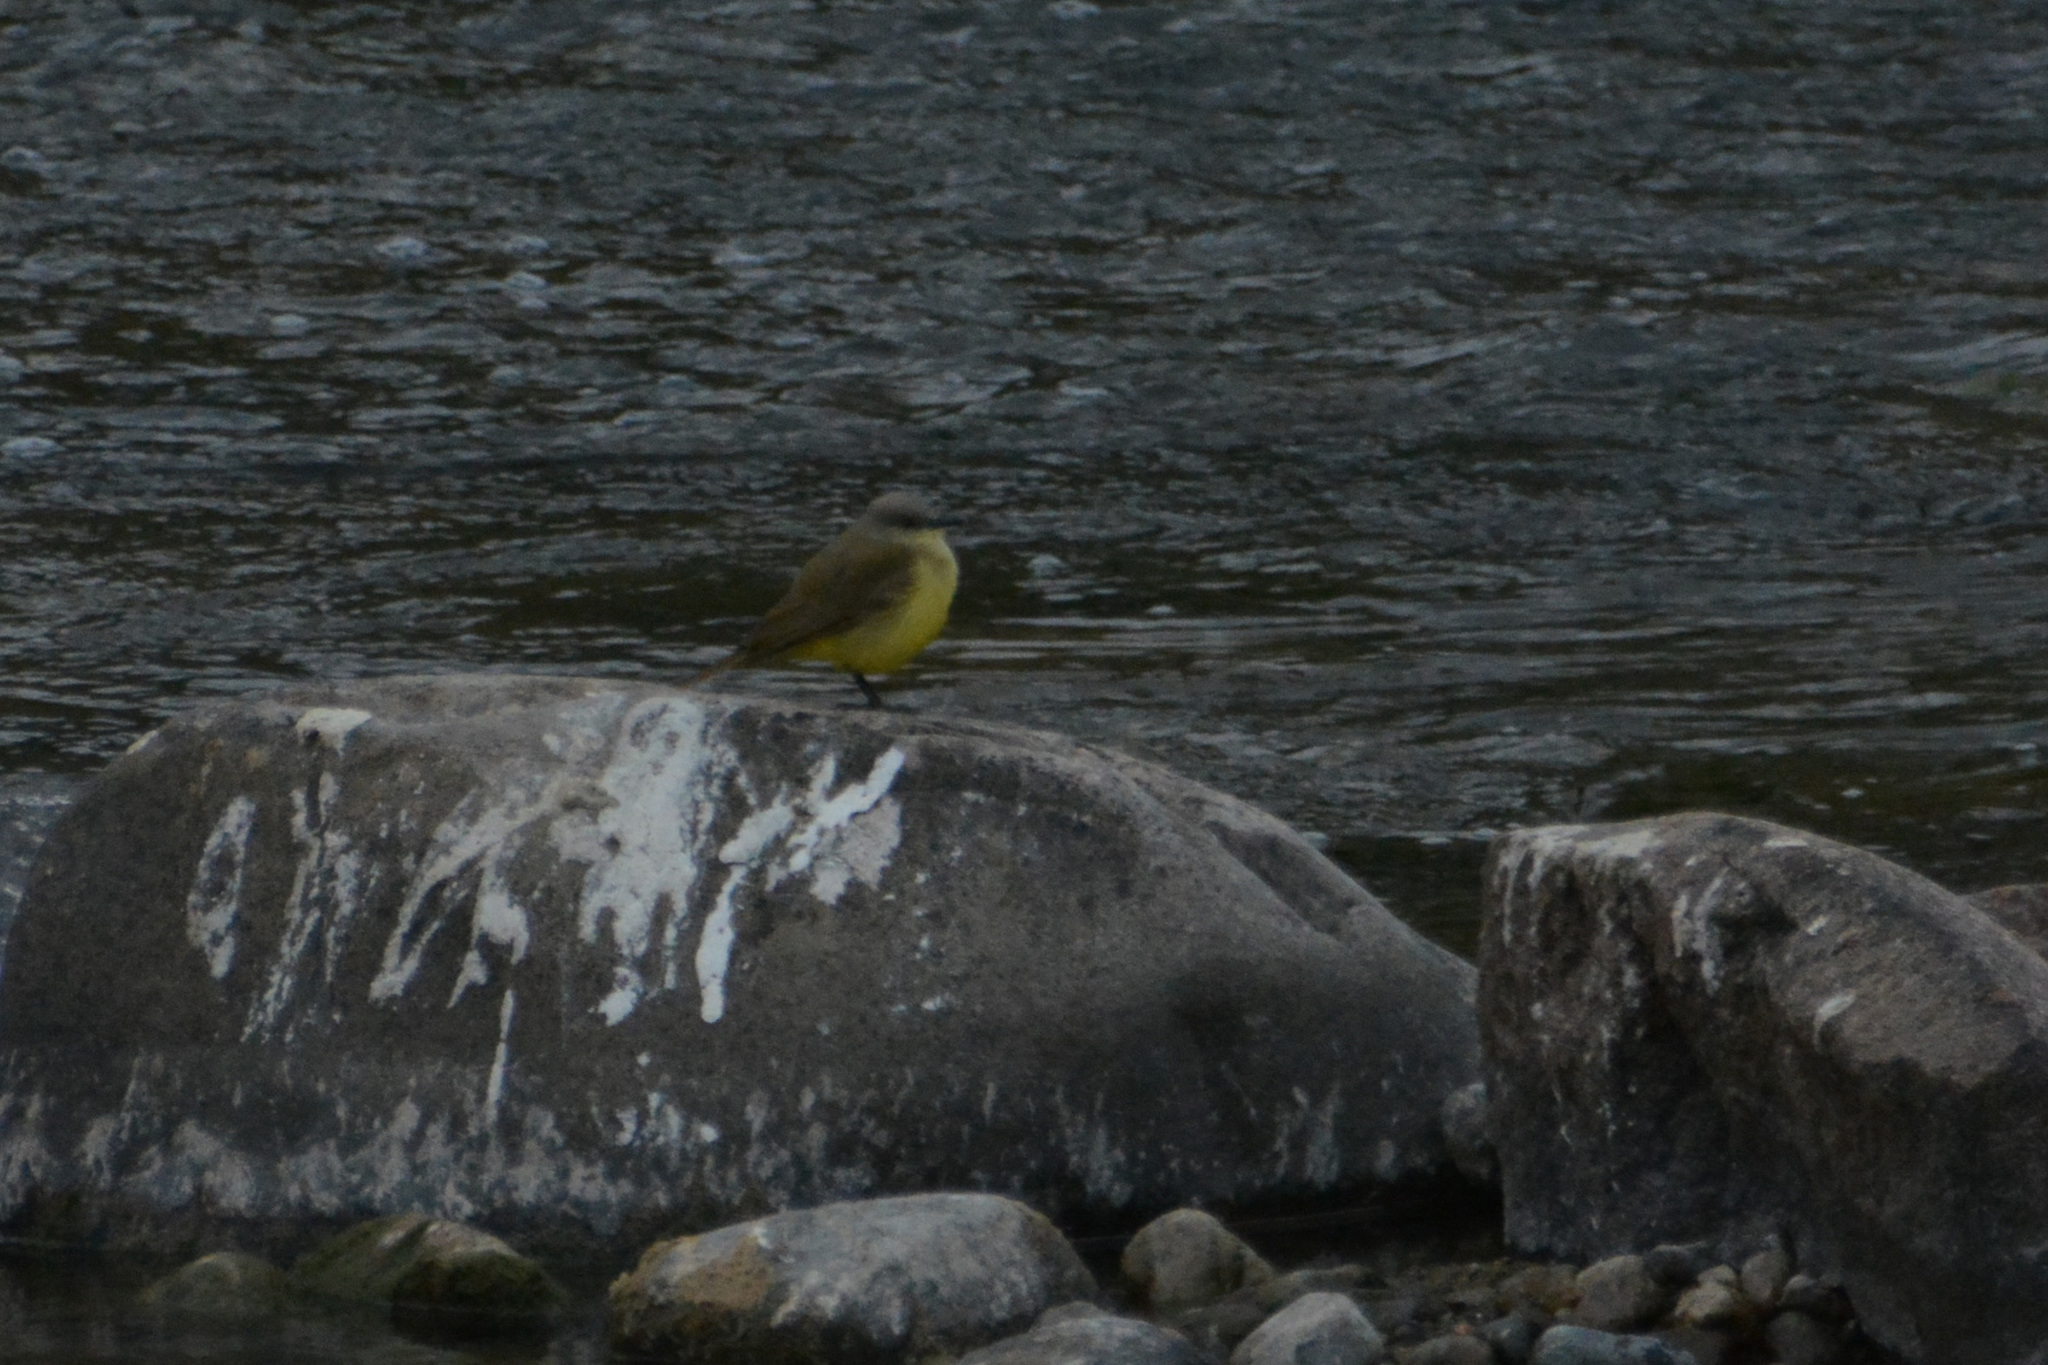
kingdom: Animalia
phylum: Chordata
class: Aves
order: Passeriformes
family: Tyrannidae
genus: Machetornis
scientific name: Machetornis rixosa
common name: Cattle tyrant
